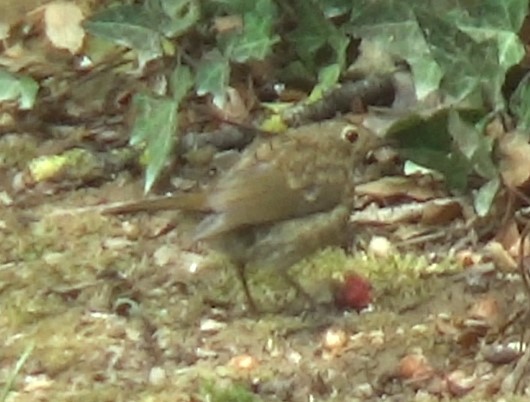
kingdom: Animalia
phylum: Chordata
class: Aves
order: Passeriformes
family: Muscicapidae
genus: Erithacus
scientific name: Erithacus rubecula
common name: European robin
